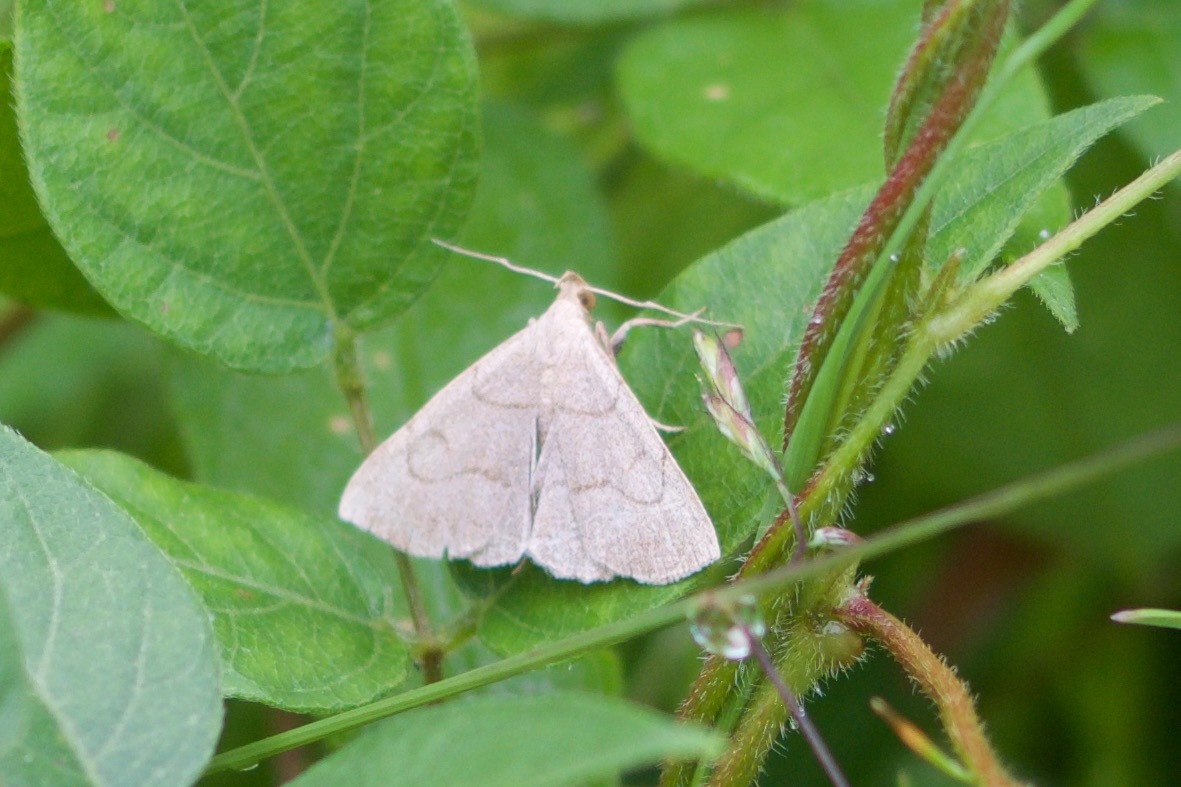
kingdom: Animalia
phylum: Arthropoda
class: Insecta
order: Lepidoptera
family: Erebidae
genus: Zanclognatha
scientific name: Zanclognatha pedipilalis
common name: Grayish fan-foot
